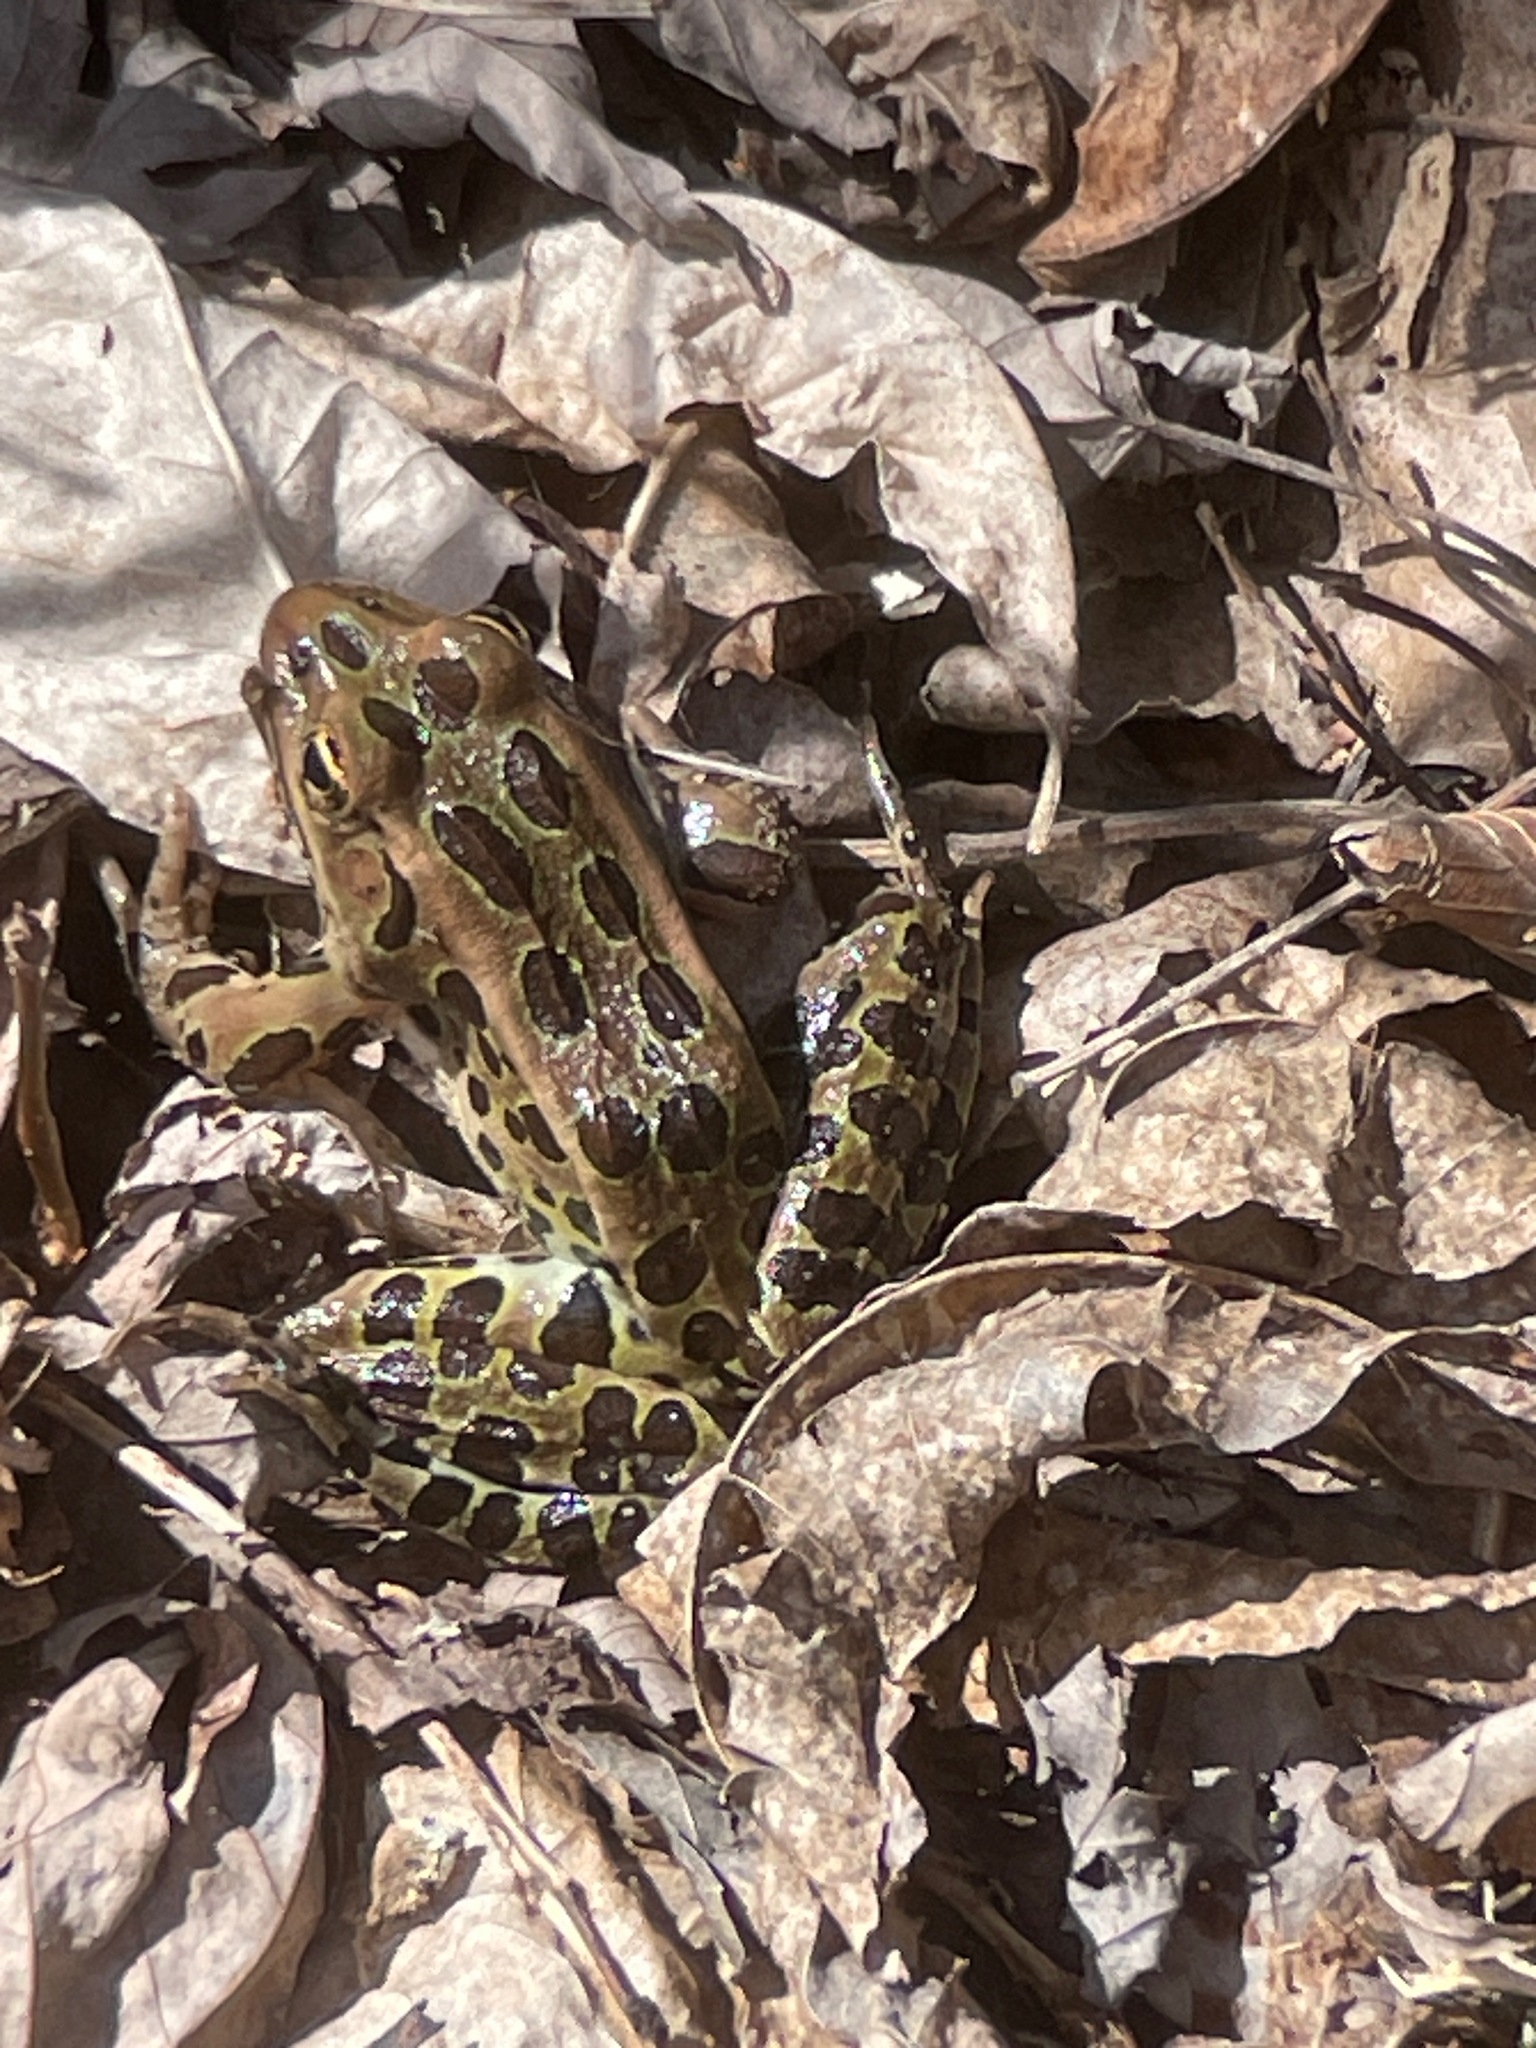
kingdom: Animalia
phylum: Chordata
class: Amphibia
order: Anura
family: Ranidae
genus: Lithobates
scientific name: Lithobates pipiens
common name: Northern leopard frog
